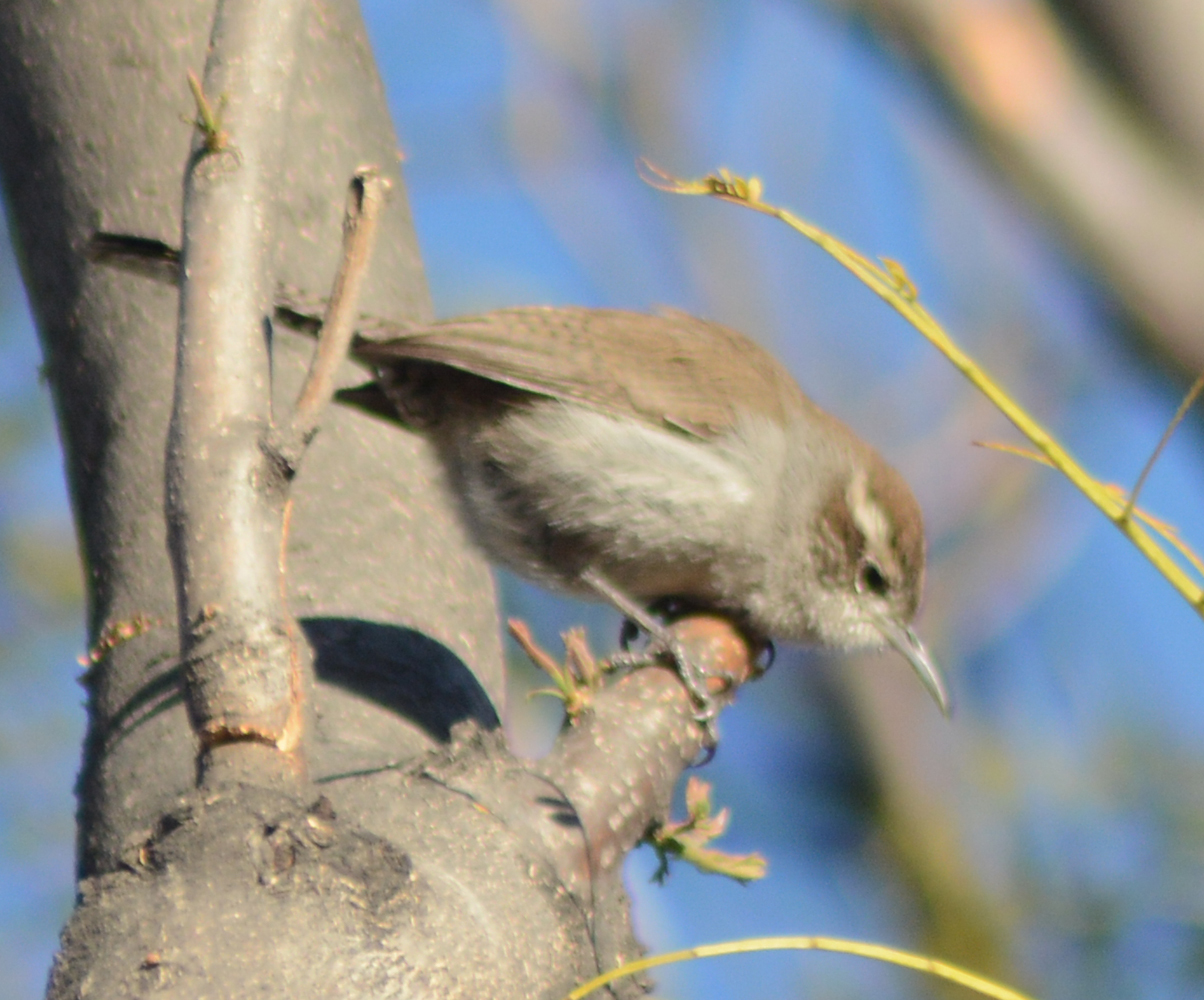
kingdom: Animalia
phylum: Chordata
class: Aves
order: Passeriformes
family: Troglodytidae
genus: Thryomanes
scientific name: Thryomanes bewickii
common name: Bewick's wren
